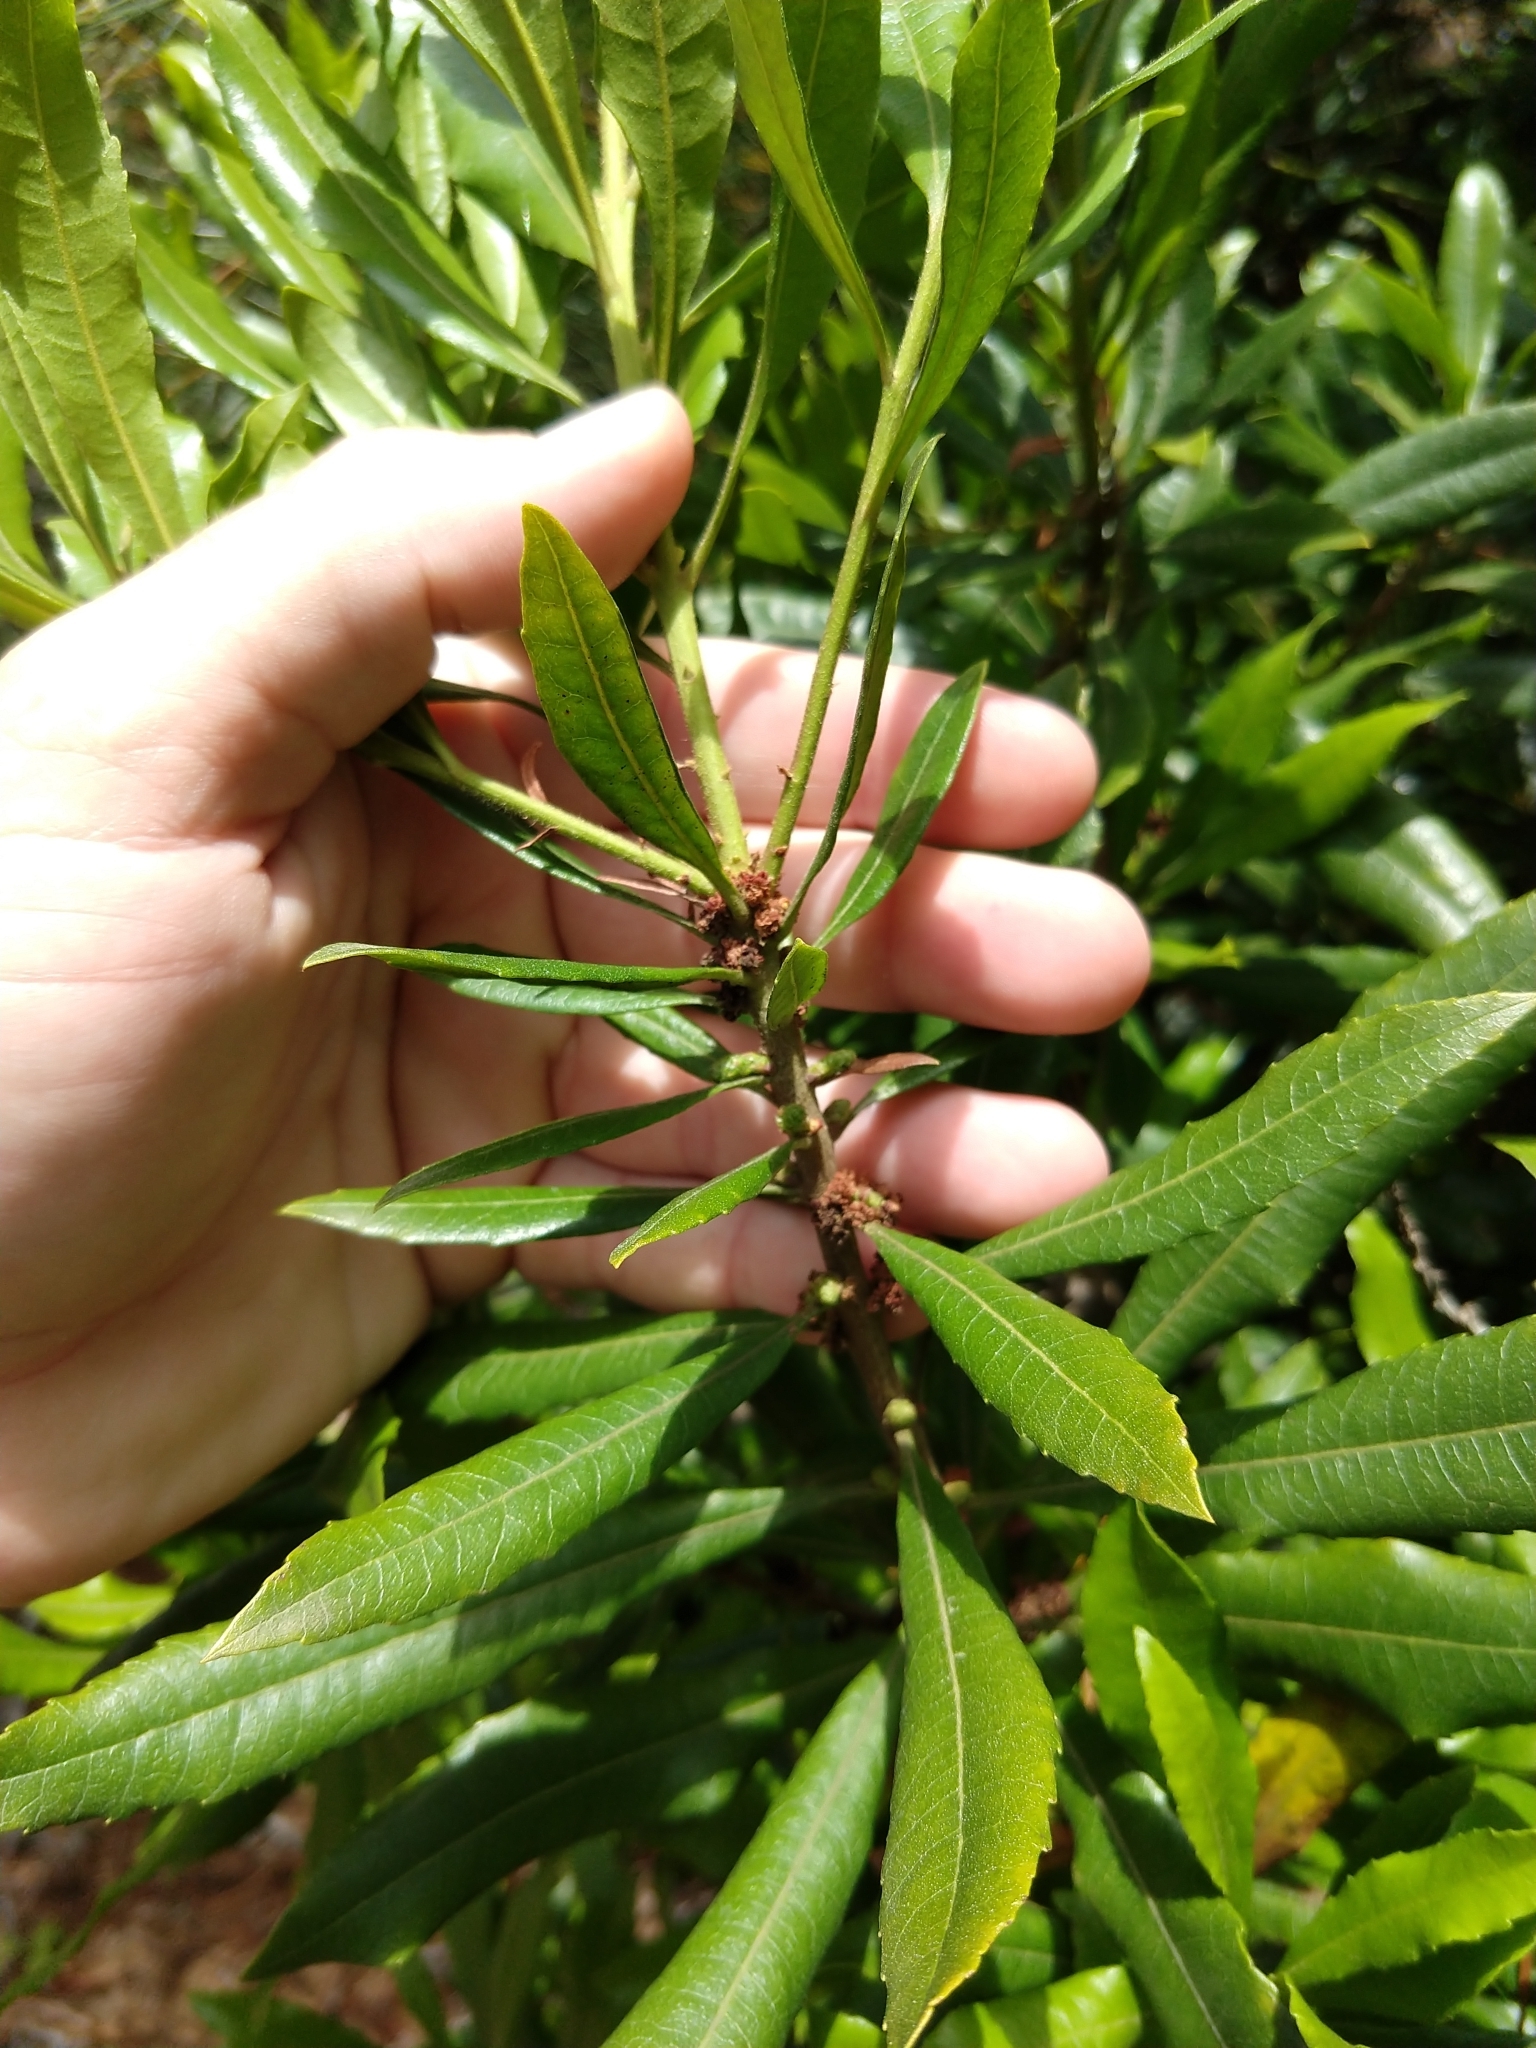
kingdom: Plantae
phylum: Tracheophyta
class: Magnoliopsida
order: Fagales
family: Myricaceae
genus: Morella
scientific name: Morella californica
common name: California wax-myrtle
